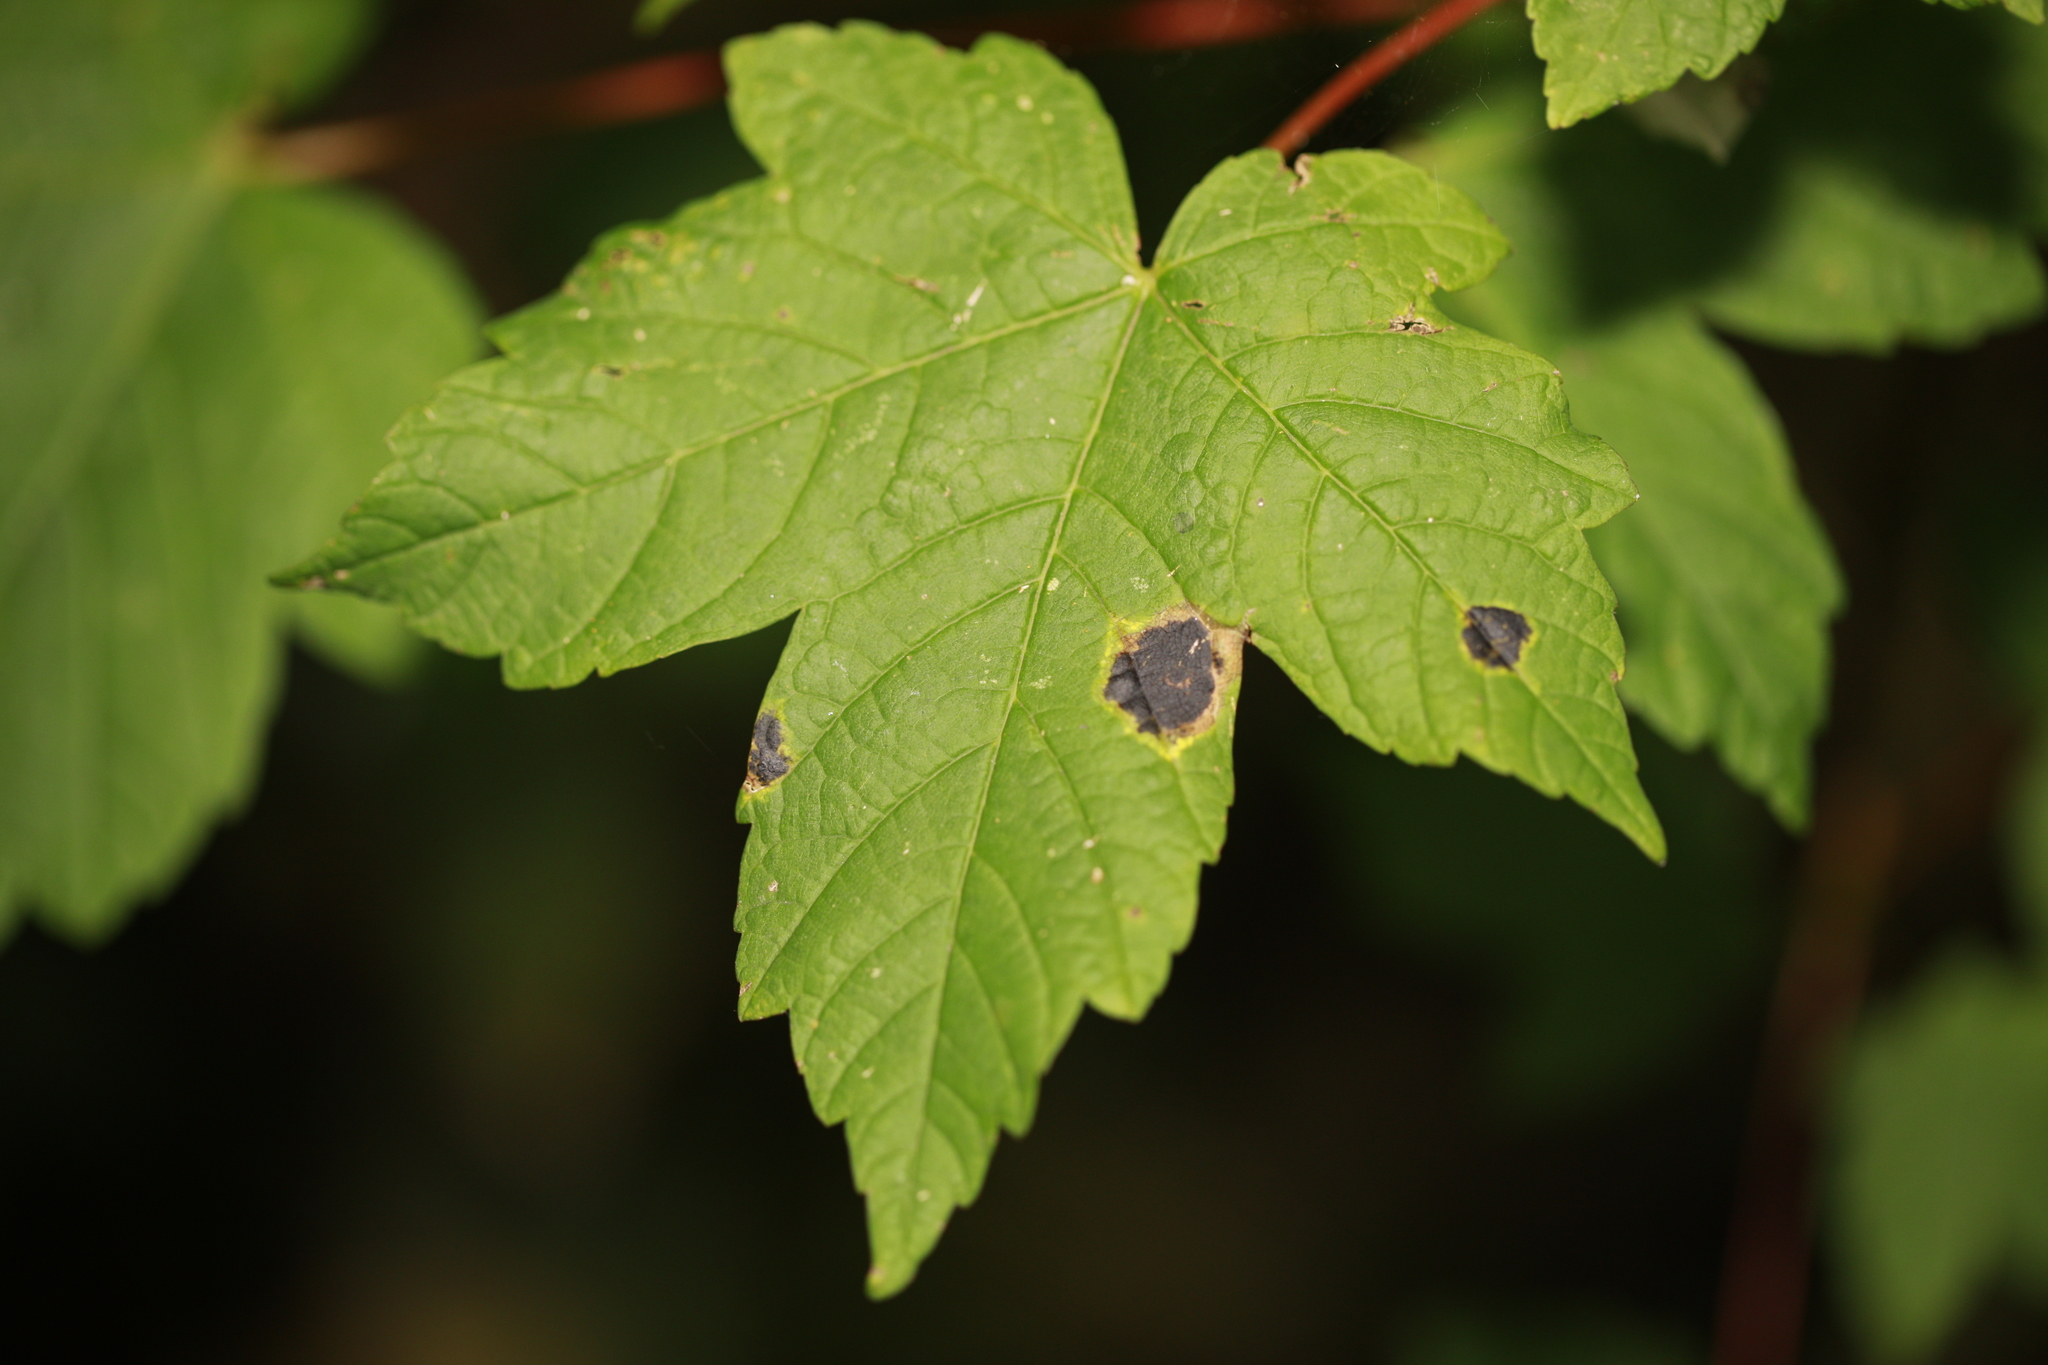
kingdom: Fungi
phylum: Ascomycota
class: Leotiomycetes
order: Rhytismatales
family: Rhytismataceae
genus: Rhytisma
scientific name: Rhytisma acerinum
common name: European tar spot
